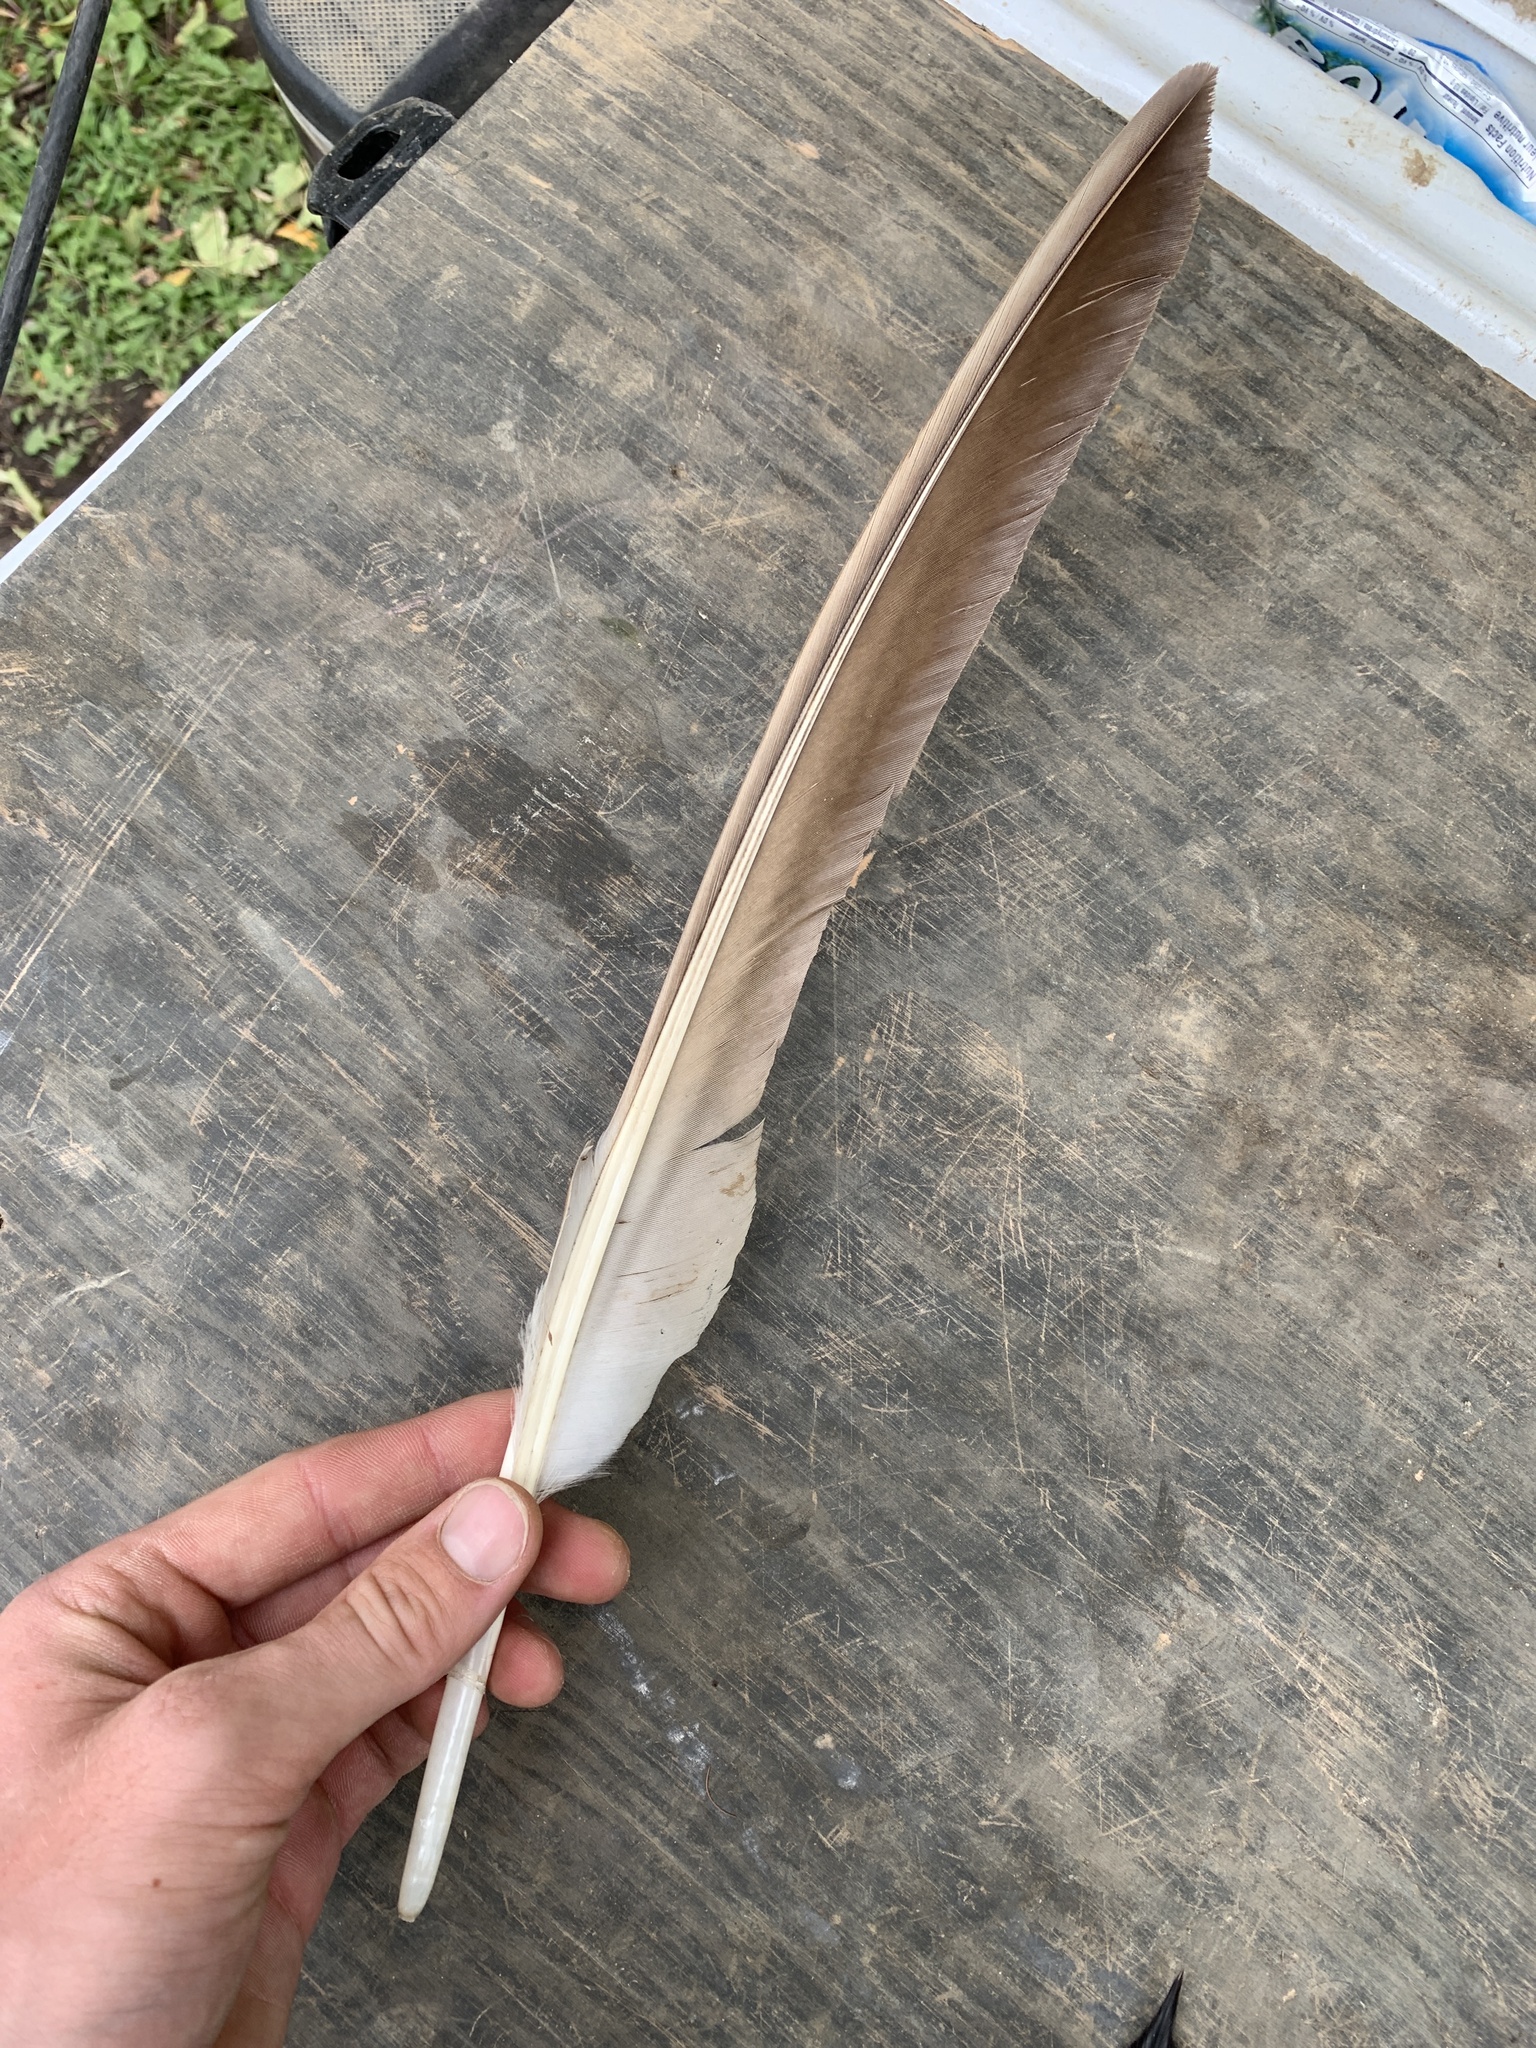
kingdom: Animalia
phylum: Chordata
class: Aves
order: Anseriformes
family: Anatidae
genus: Branta
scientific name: Branta canadensis
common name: Canada goose
